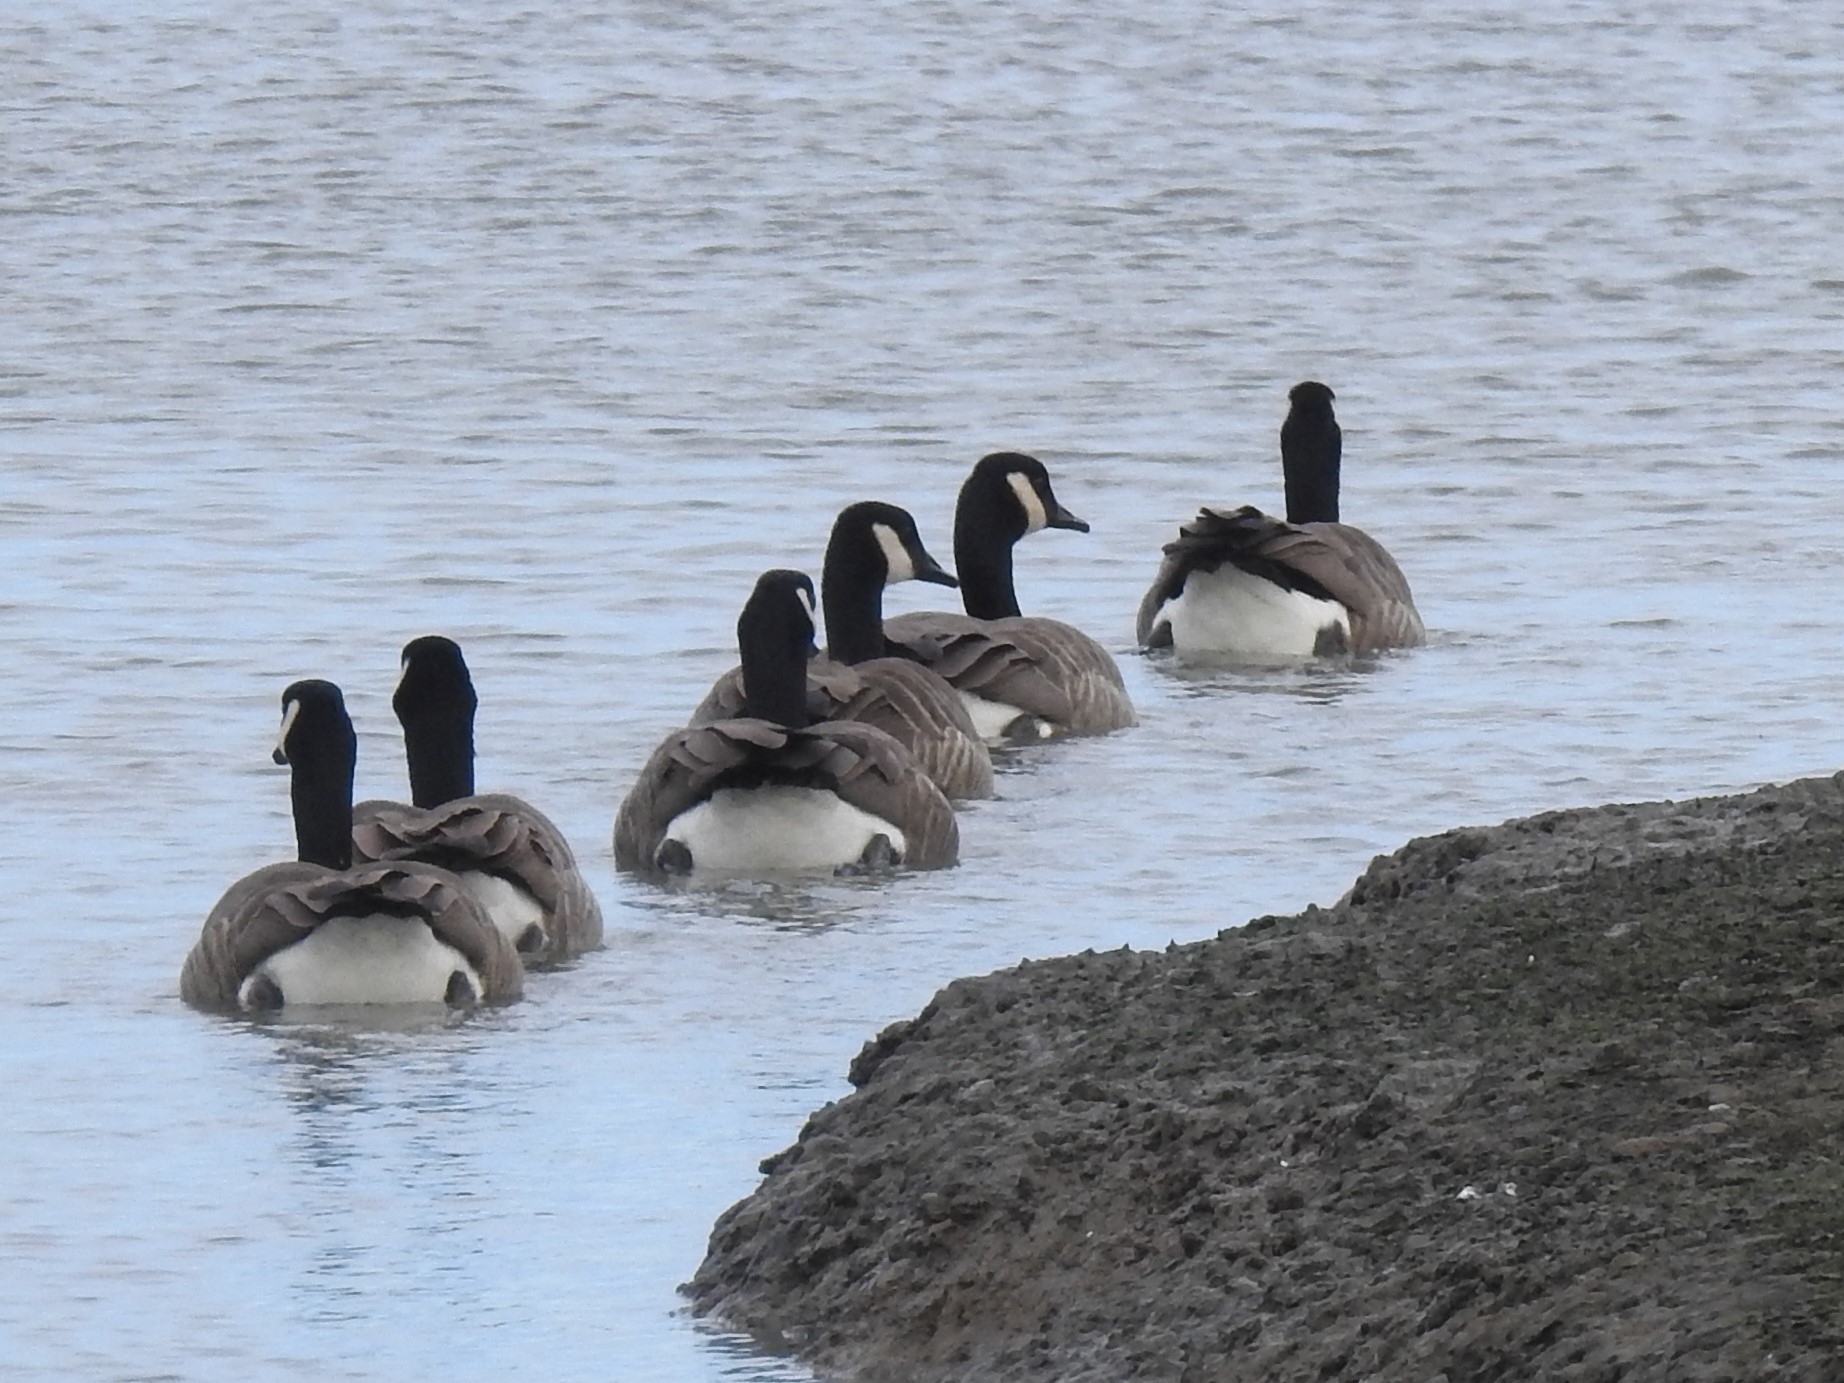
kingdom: Animalia
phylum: Chordata
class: Aves
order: Anseriformes
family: Anatidae
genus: Branta
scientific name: Branta canadensis
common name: Canada goose
